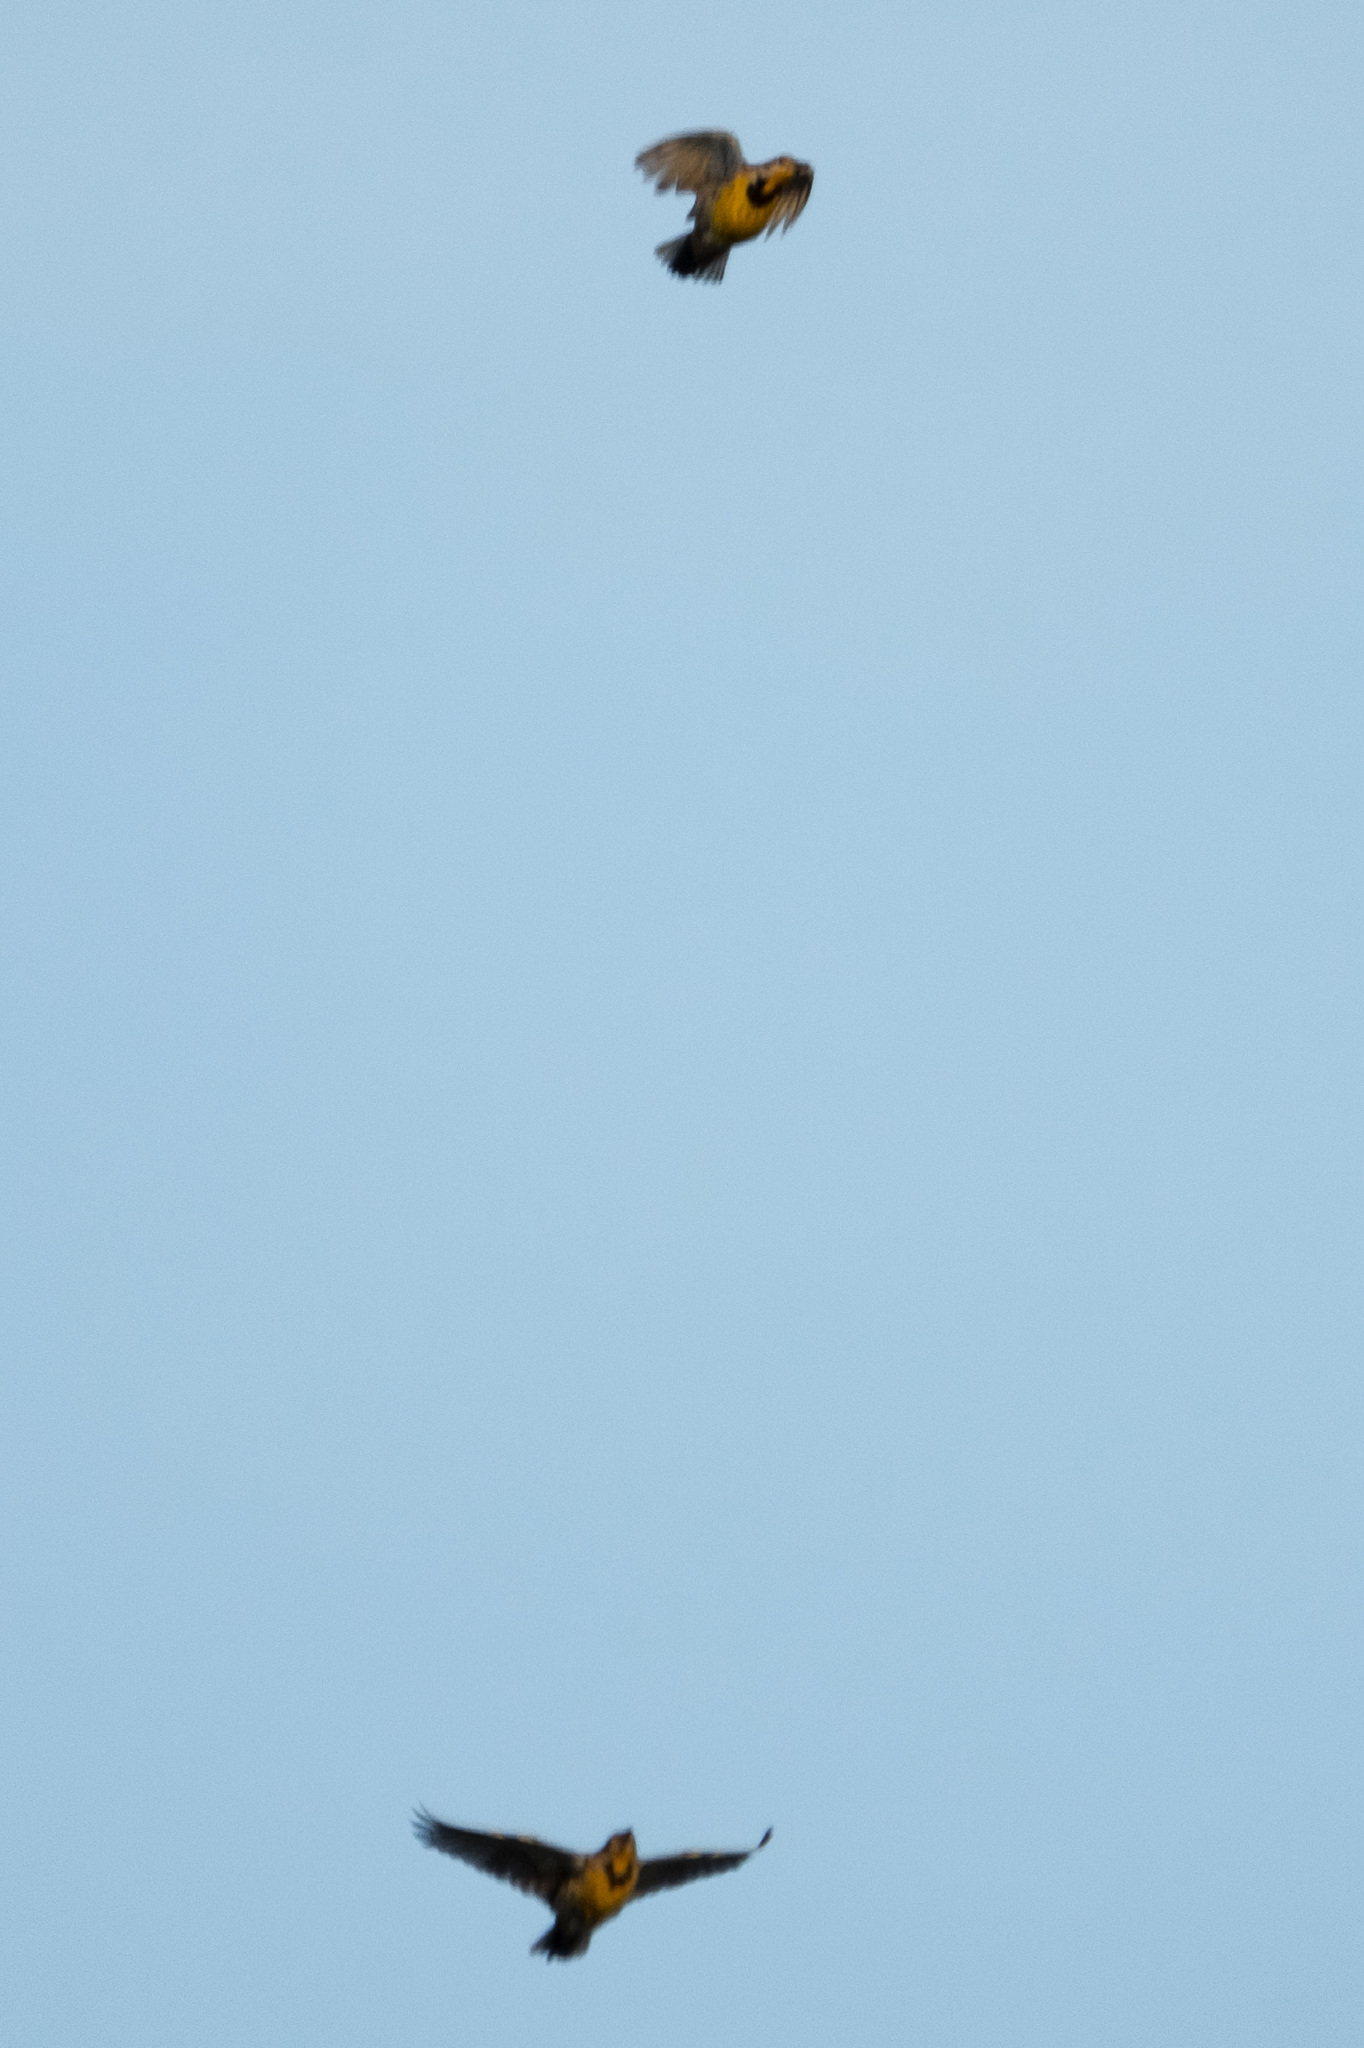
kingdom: Animalia
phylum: Chordata
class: Aves
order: Passeriformes
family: Icteridae
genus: Sturnella
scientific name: Sturnella magna
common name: Eastern meadowlark
